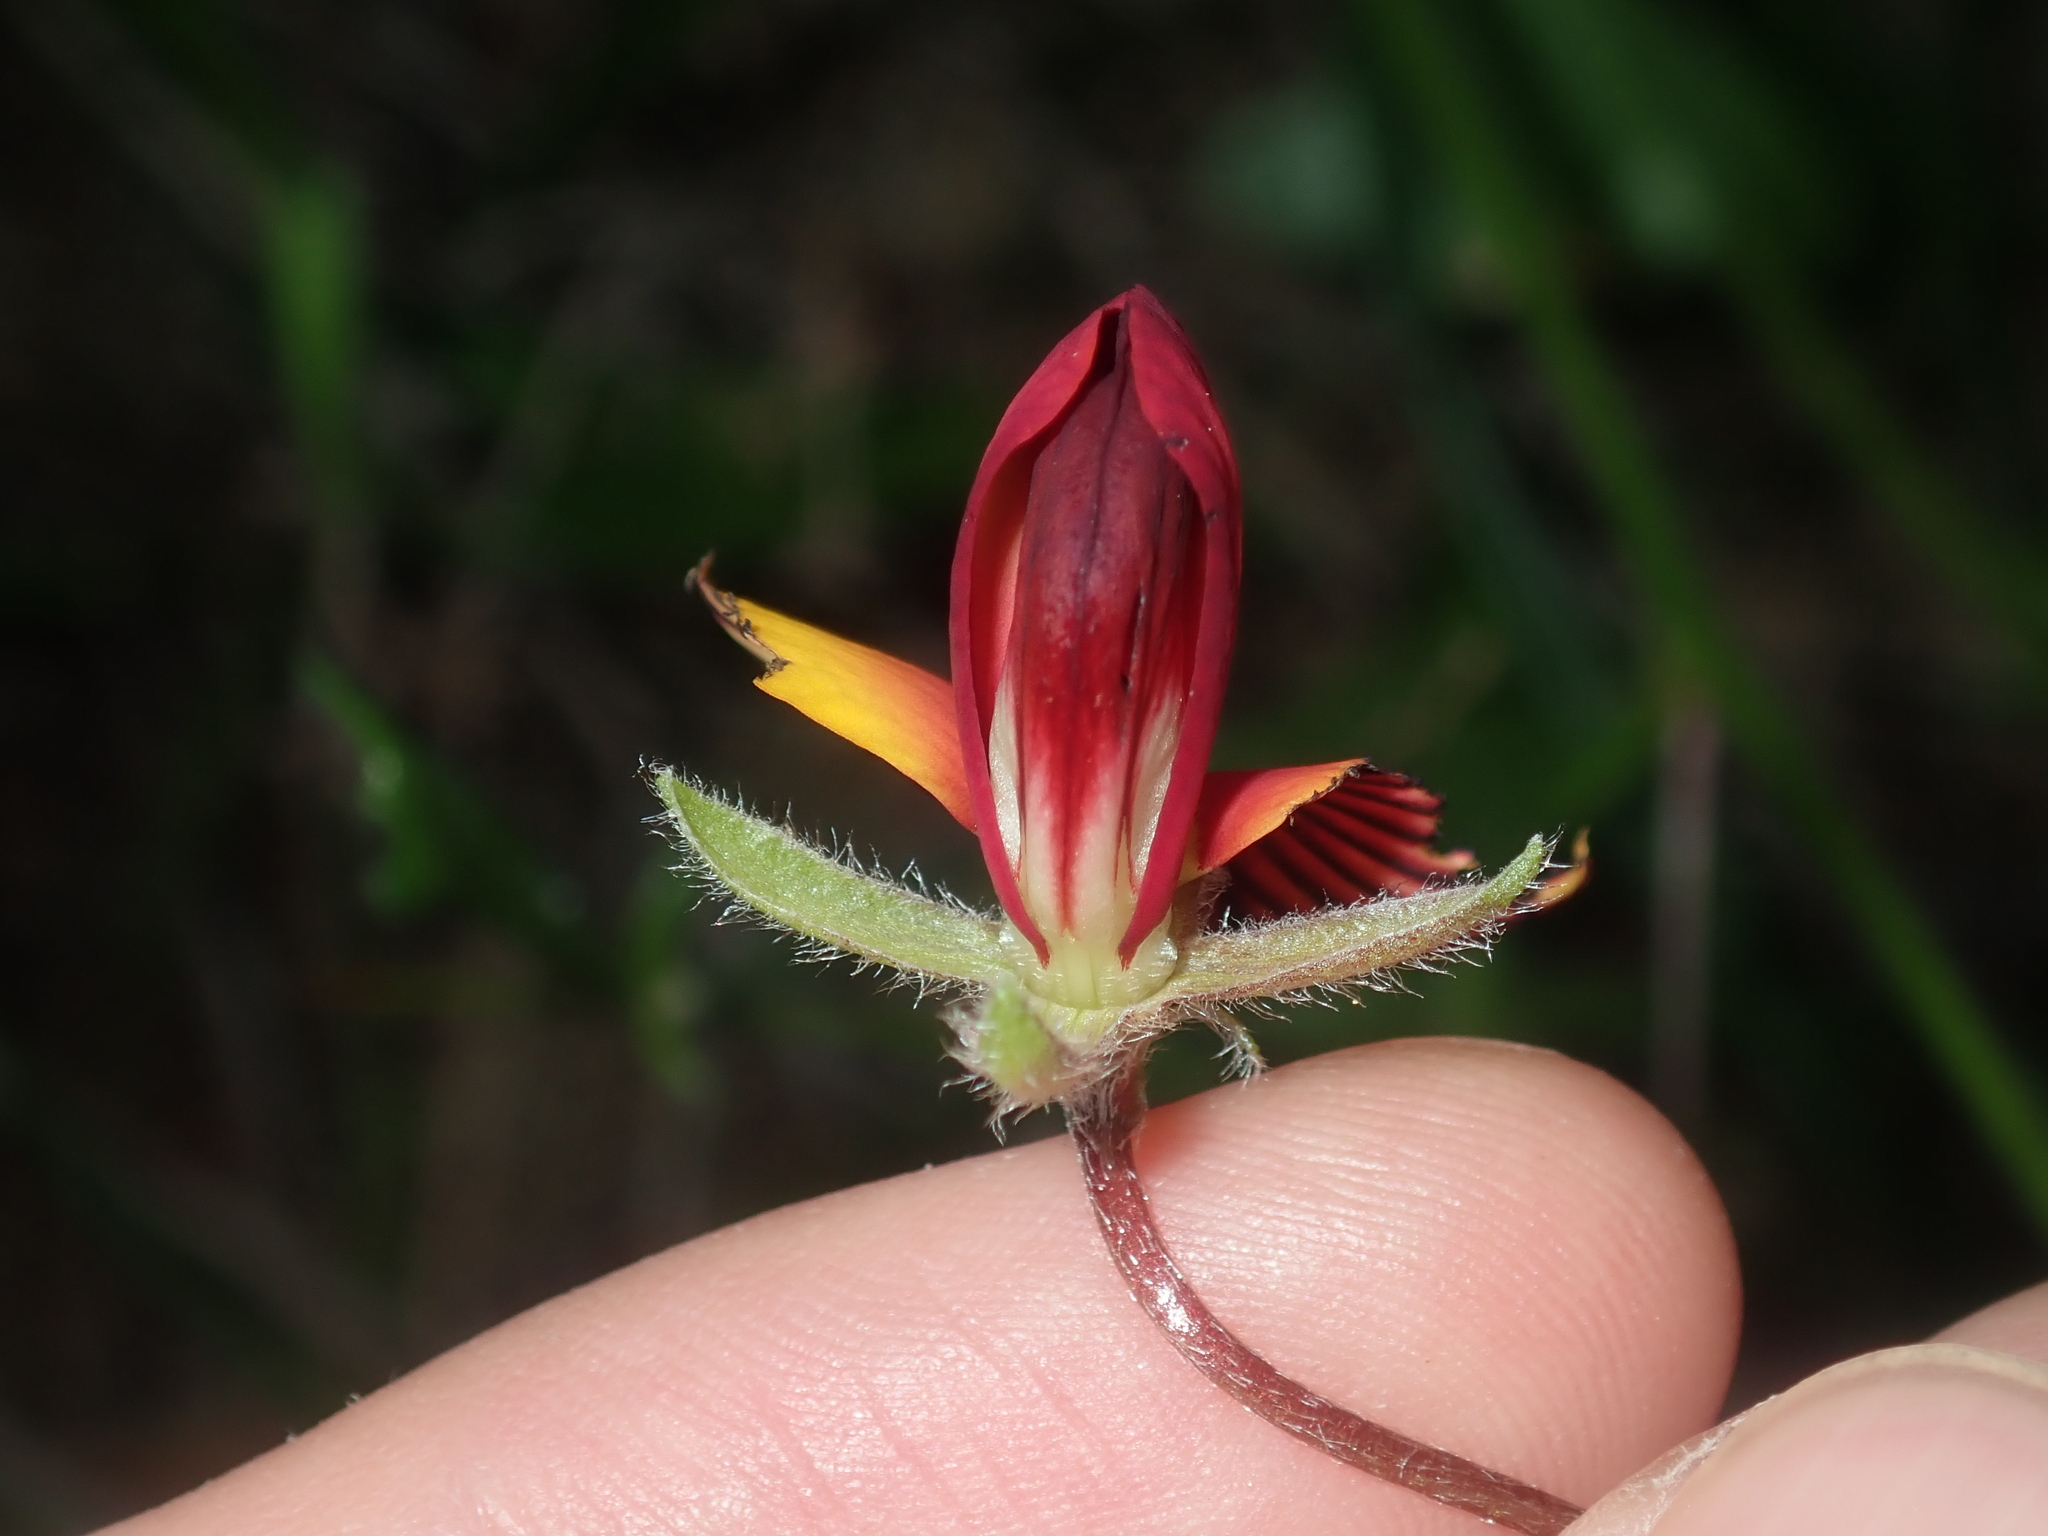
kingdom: Plantae
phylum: Tracheophyta
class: Magnoliopsida
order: Fabales
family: Fabaceae
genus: Isotropis
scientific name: Isotropis cuneifolia
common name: Granny bonnets
